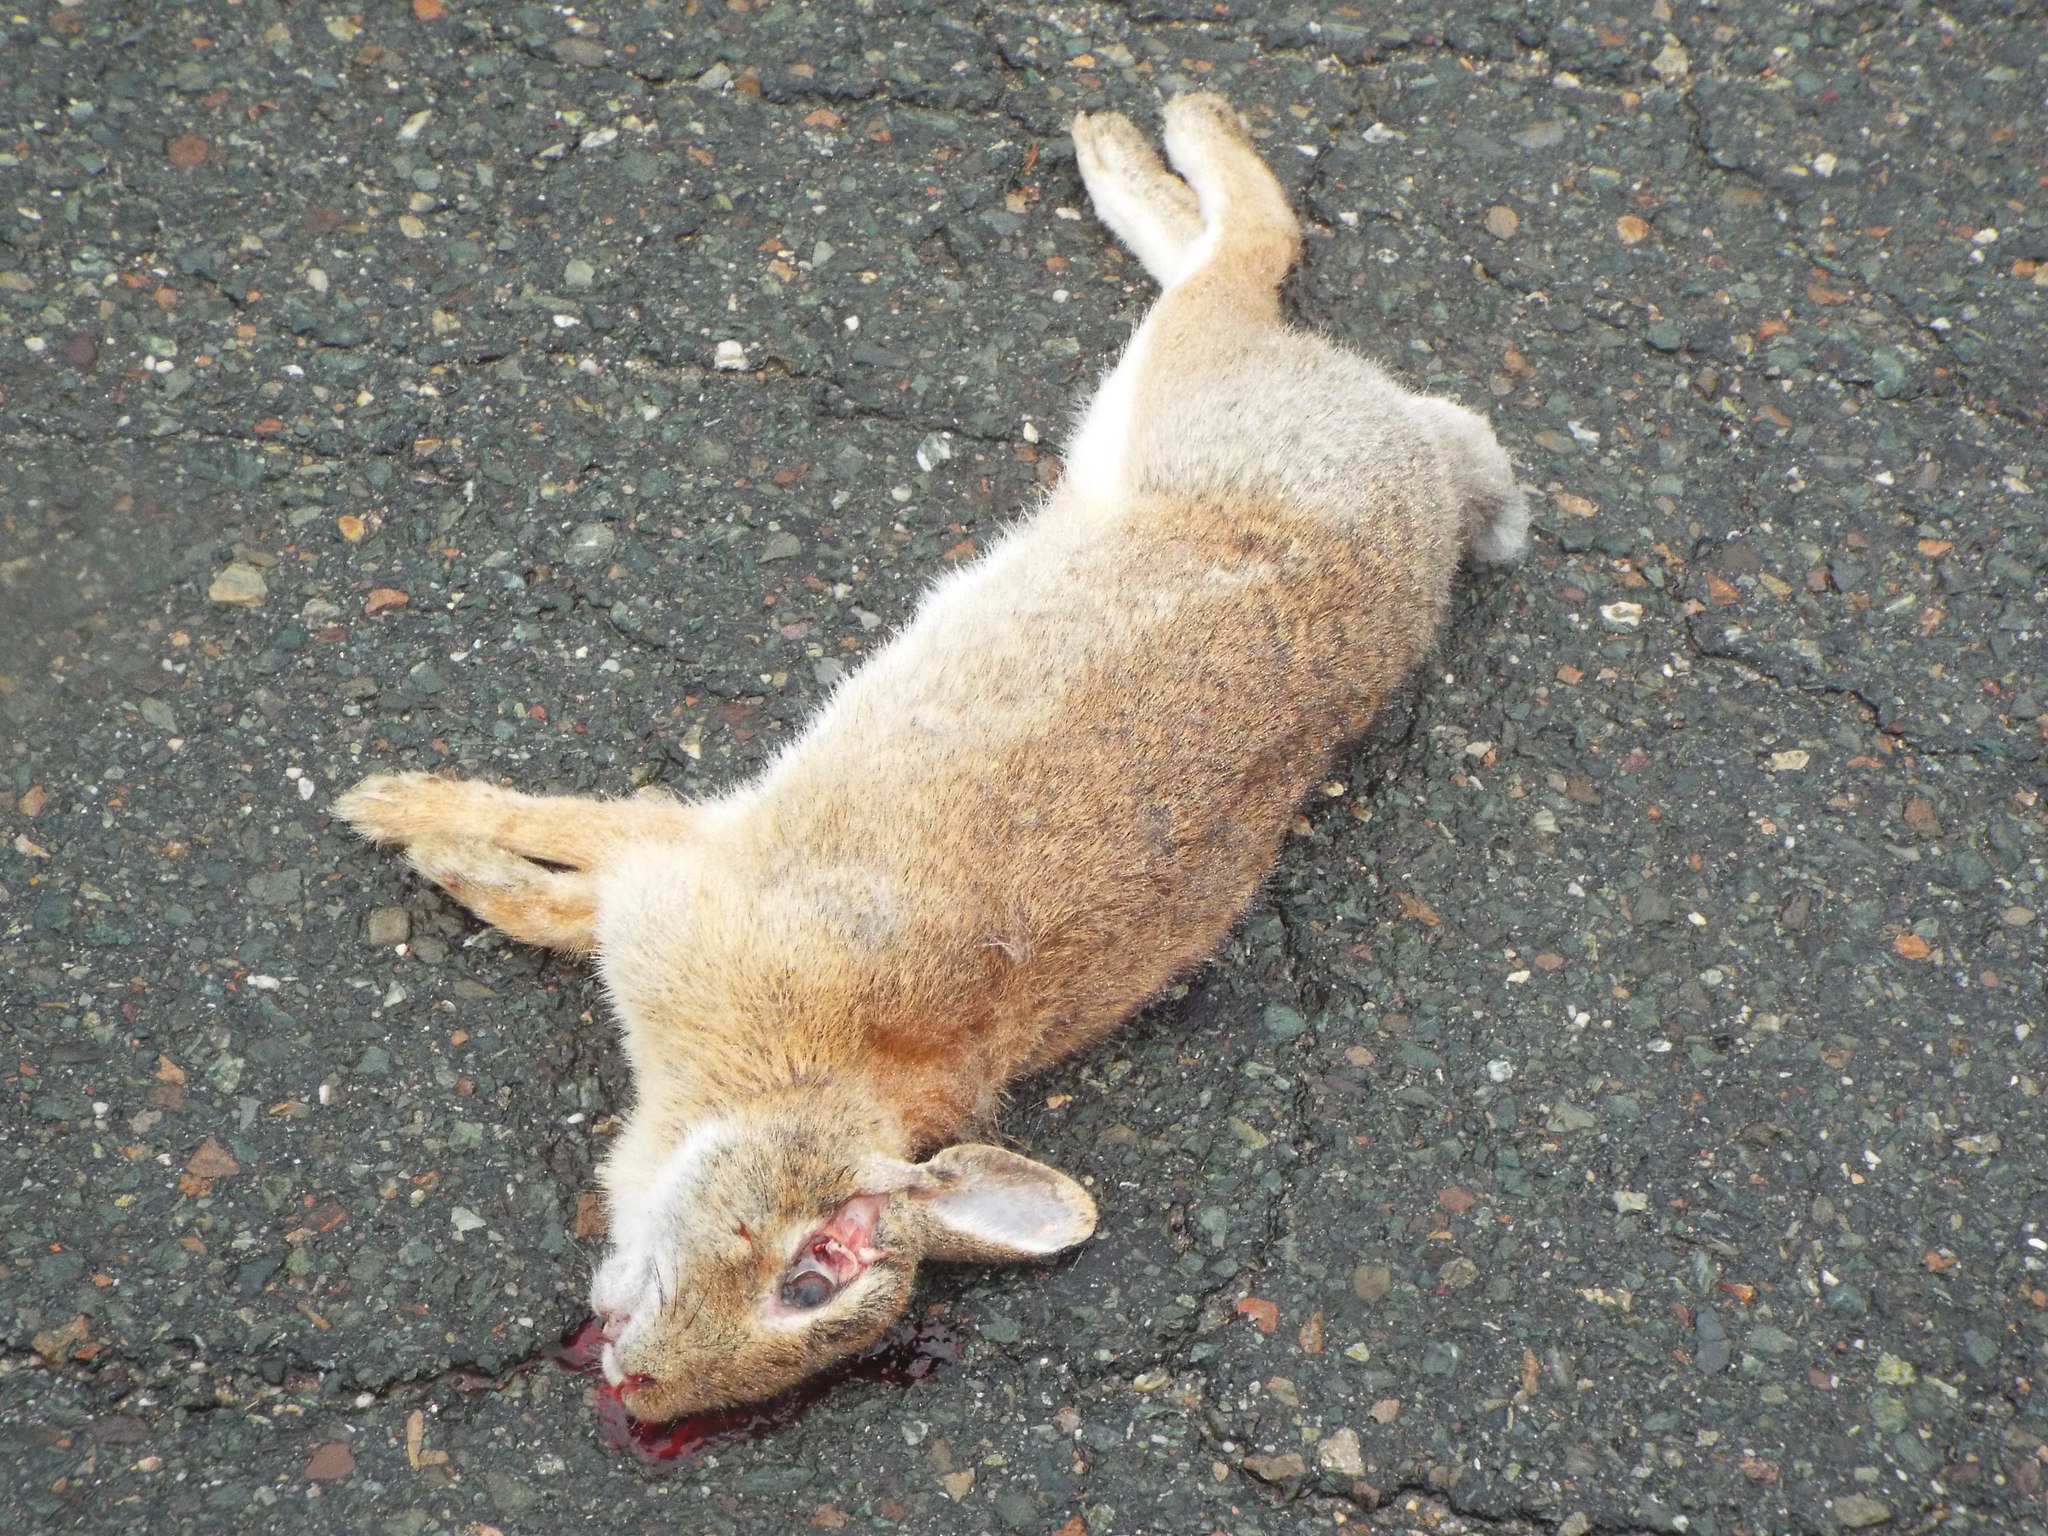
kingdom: Animalia
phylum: Chordata
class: Mammalia
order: Lagomorpha
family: Leporidae
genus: Sylvilagus
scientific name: Sylvilagus floridanus
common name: Eastern cottontail
